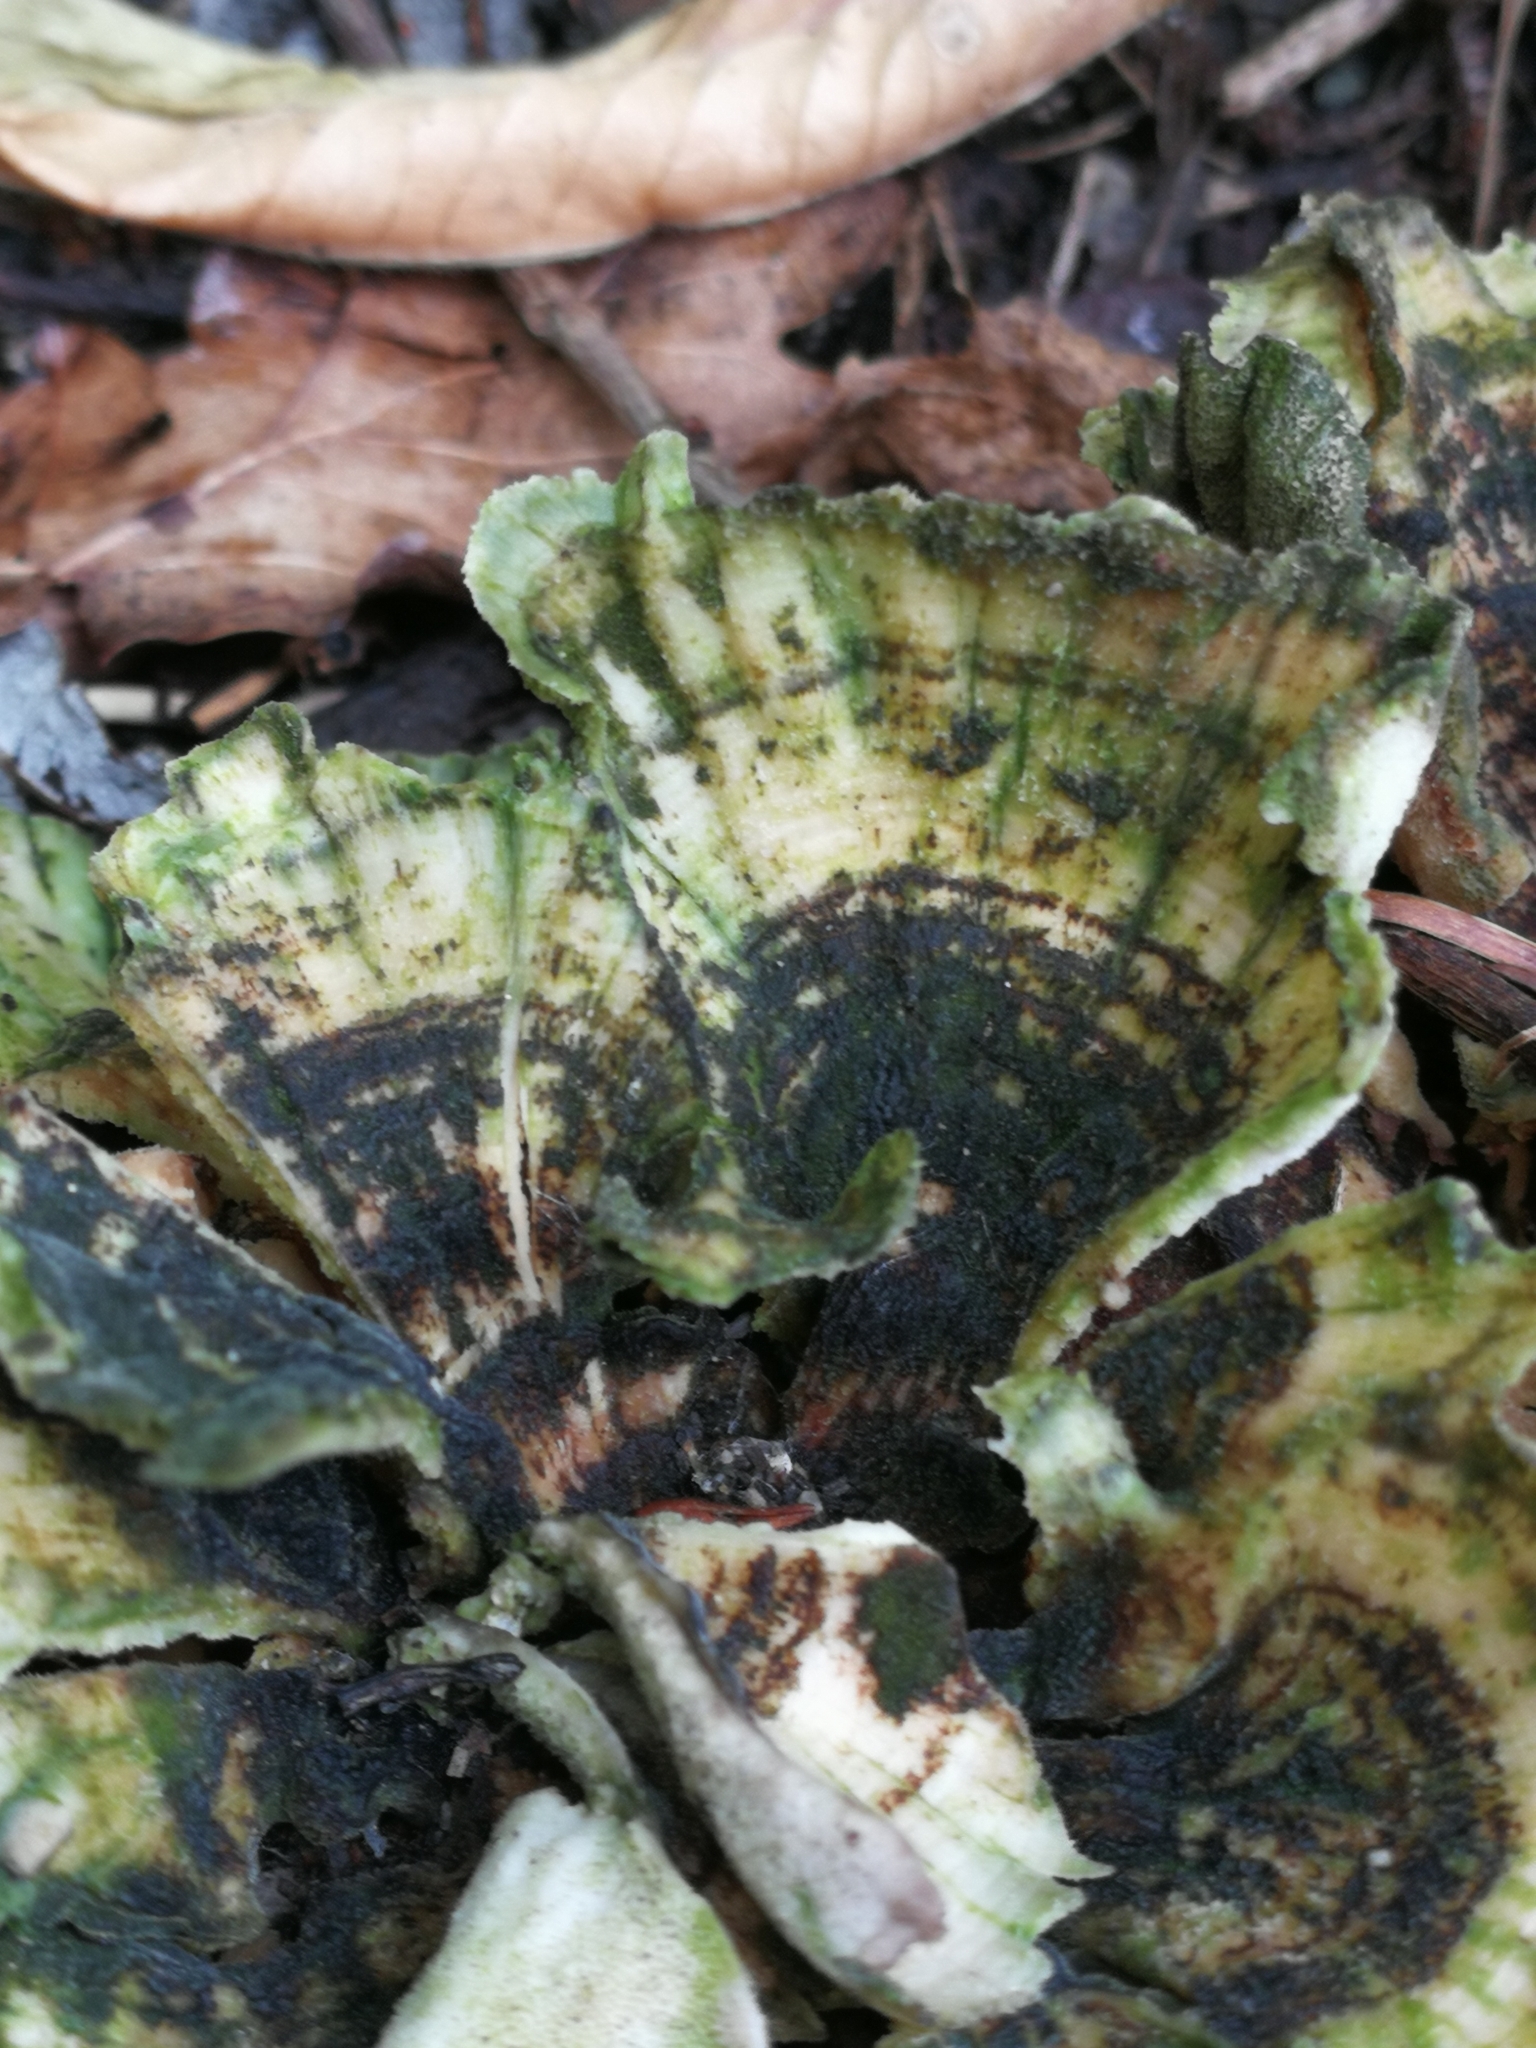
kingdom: Fungi
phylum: Basidiomycota
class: Agaricomycetes
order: Polyporales
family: Polyporaceae
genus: Trametes
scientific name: Trametes versicolor
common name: Turkeytail
